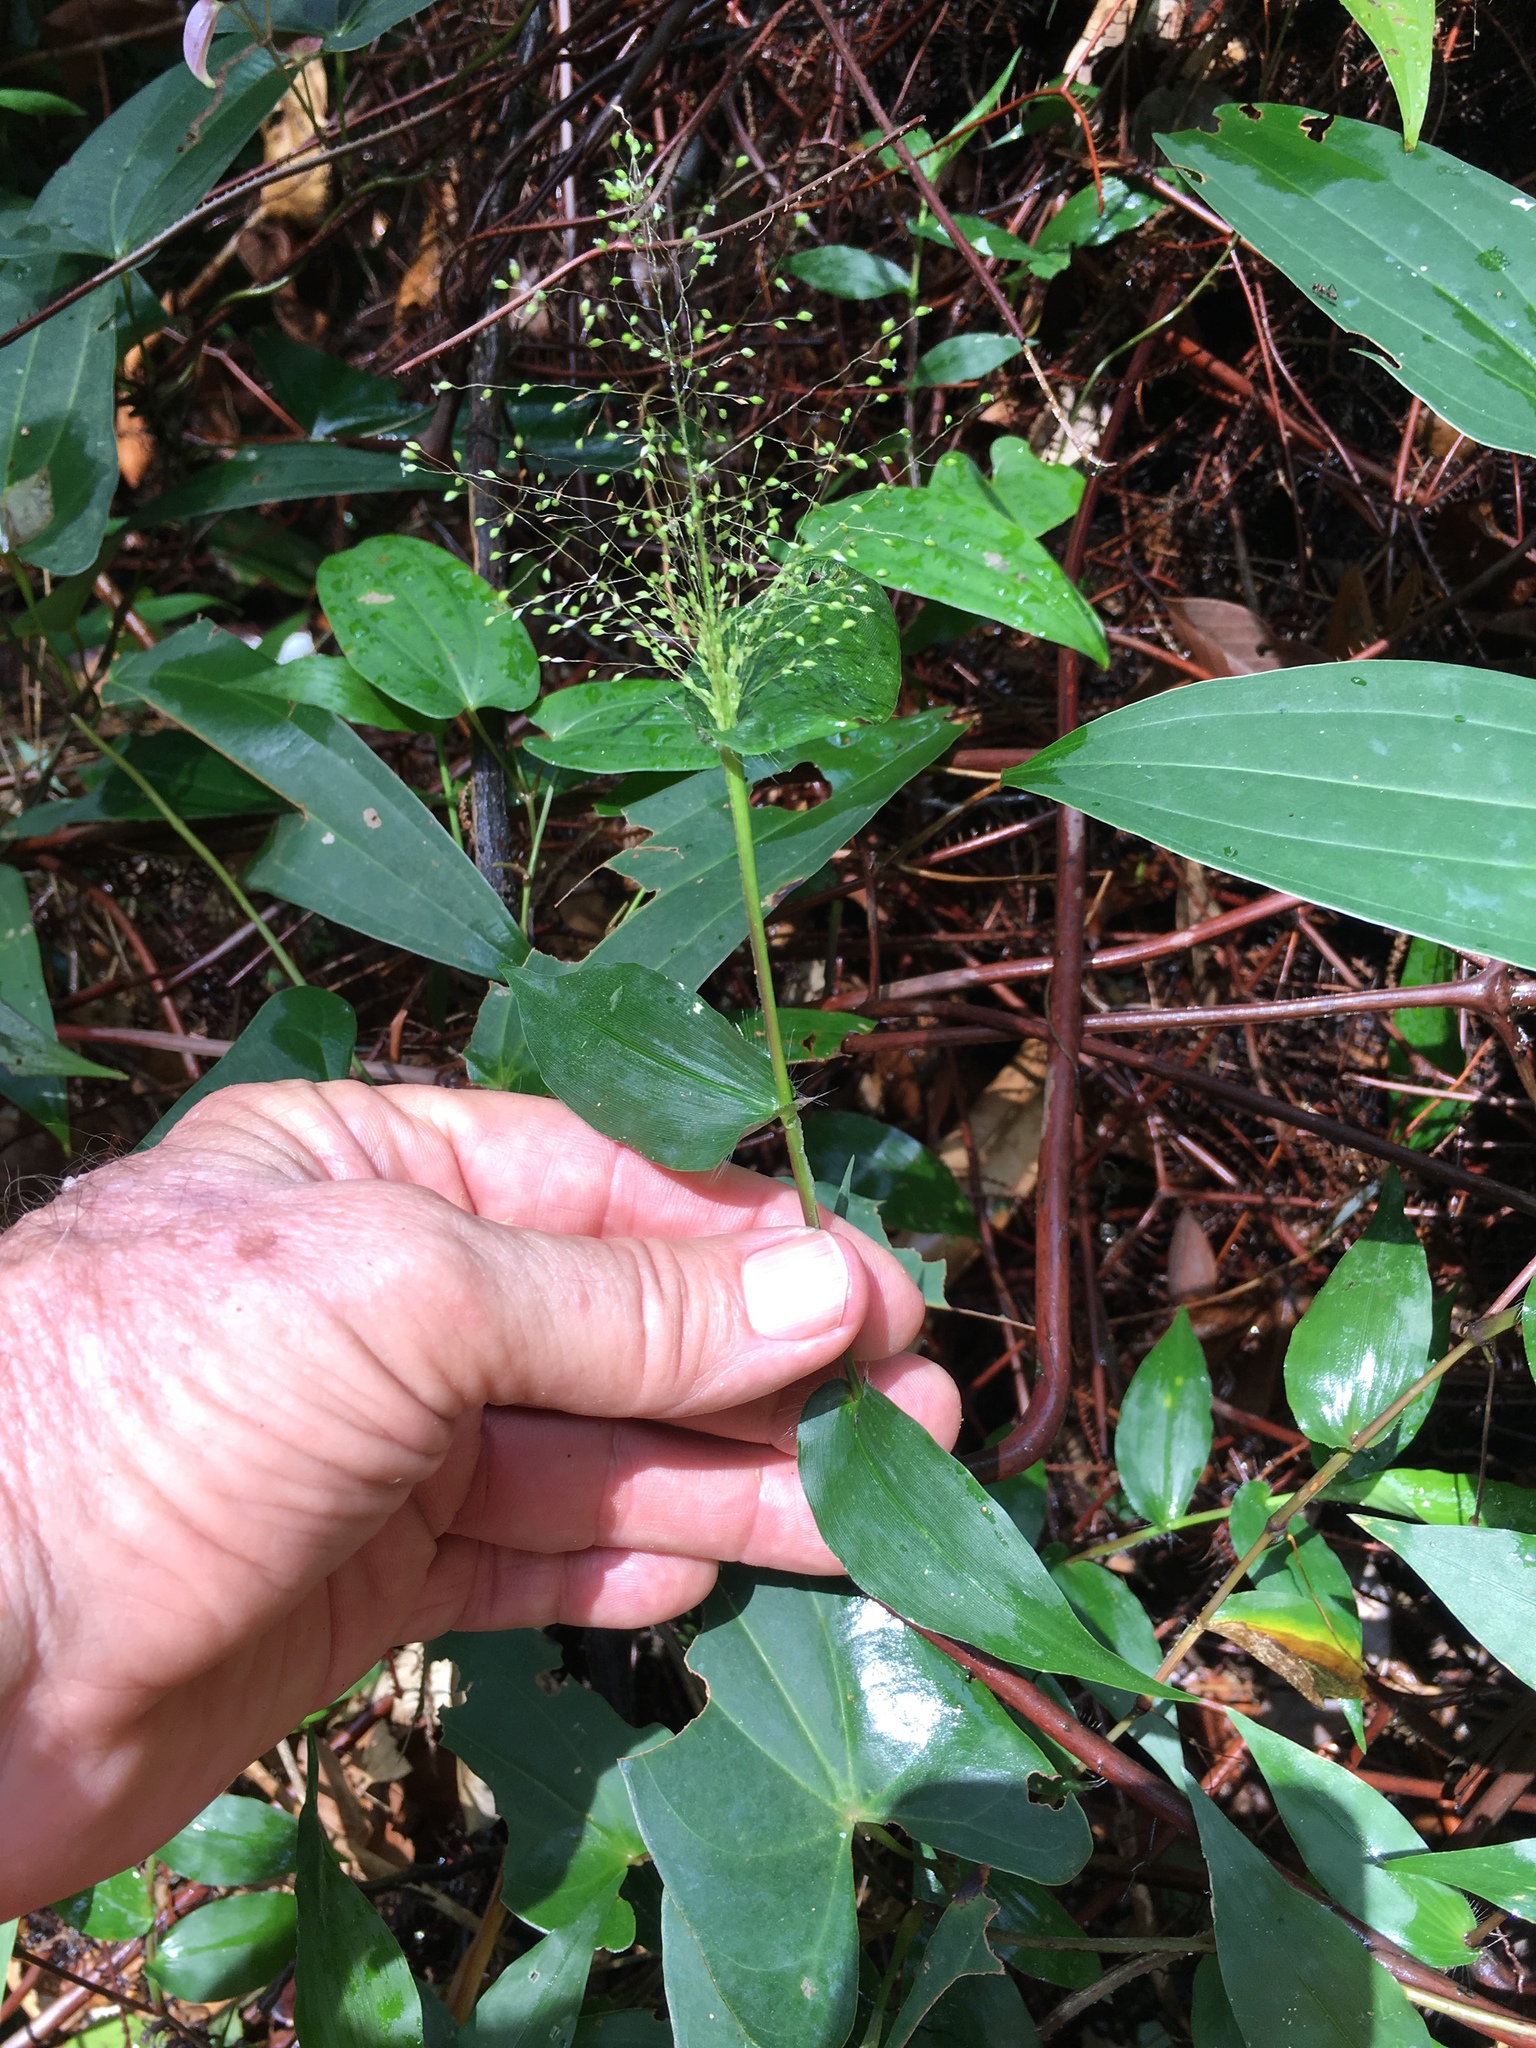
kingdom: Plantae
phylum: Tracheophyta
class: Liliopsida
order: Poales
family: Poaceae
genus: Panicum
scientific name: Panicum brevifolium
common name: Shortleaf panic grass
